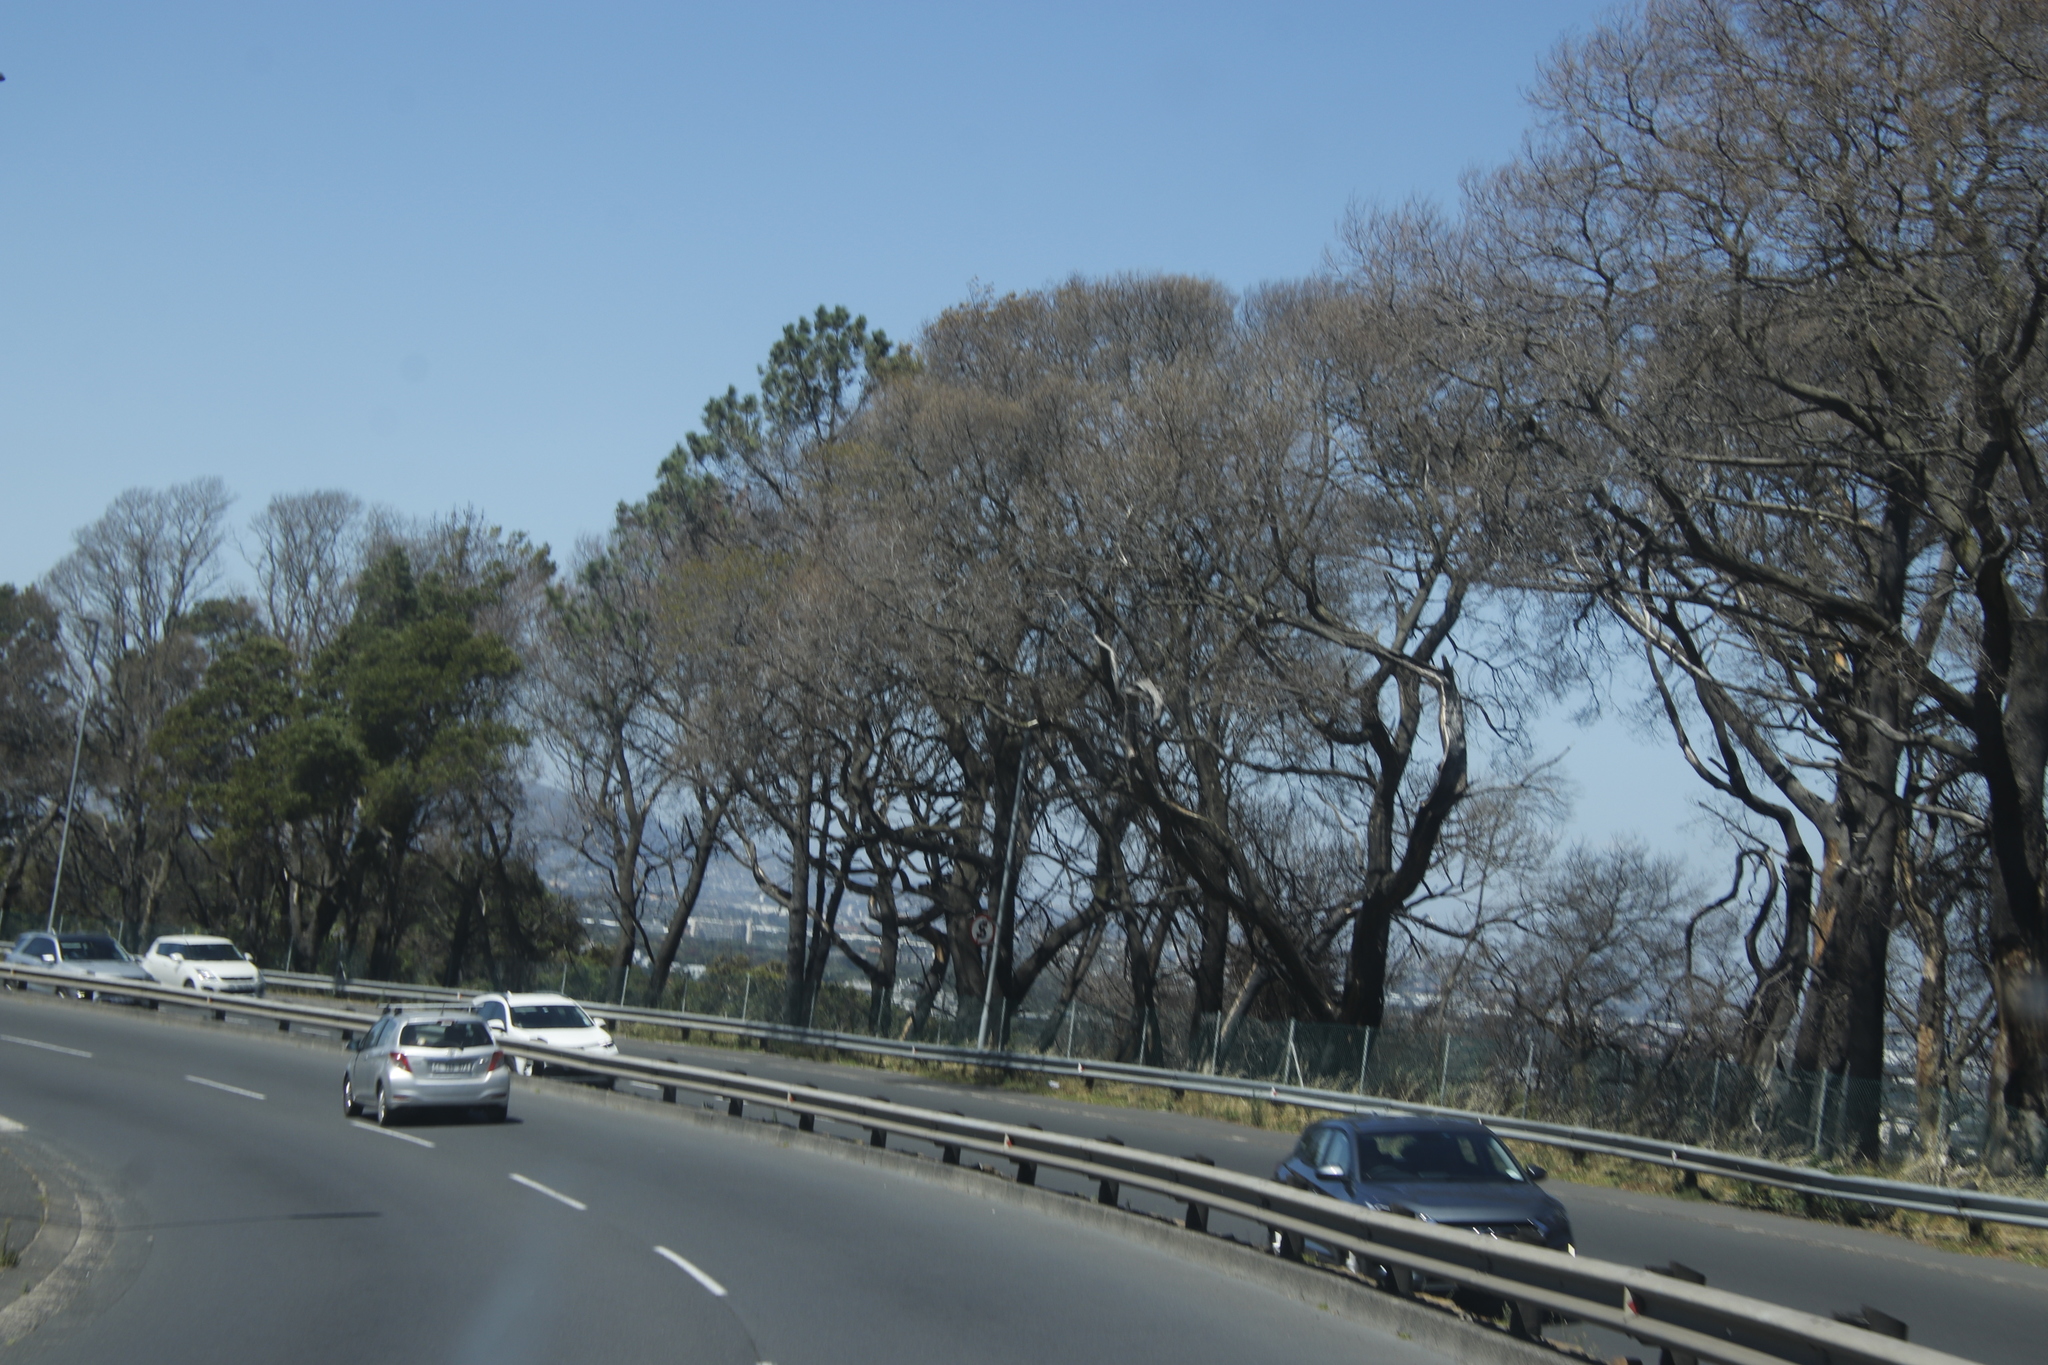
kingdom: Plantae
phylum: Tracheophyta
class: Magnoliopsida
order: Fabales
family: Fabaceae
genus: Acacia
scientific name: Acacia melanoxylon
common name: Blackwood
